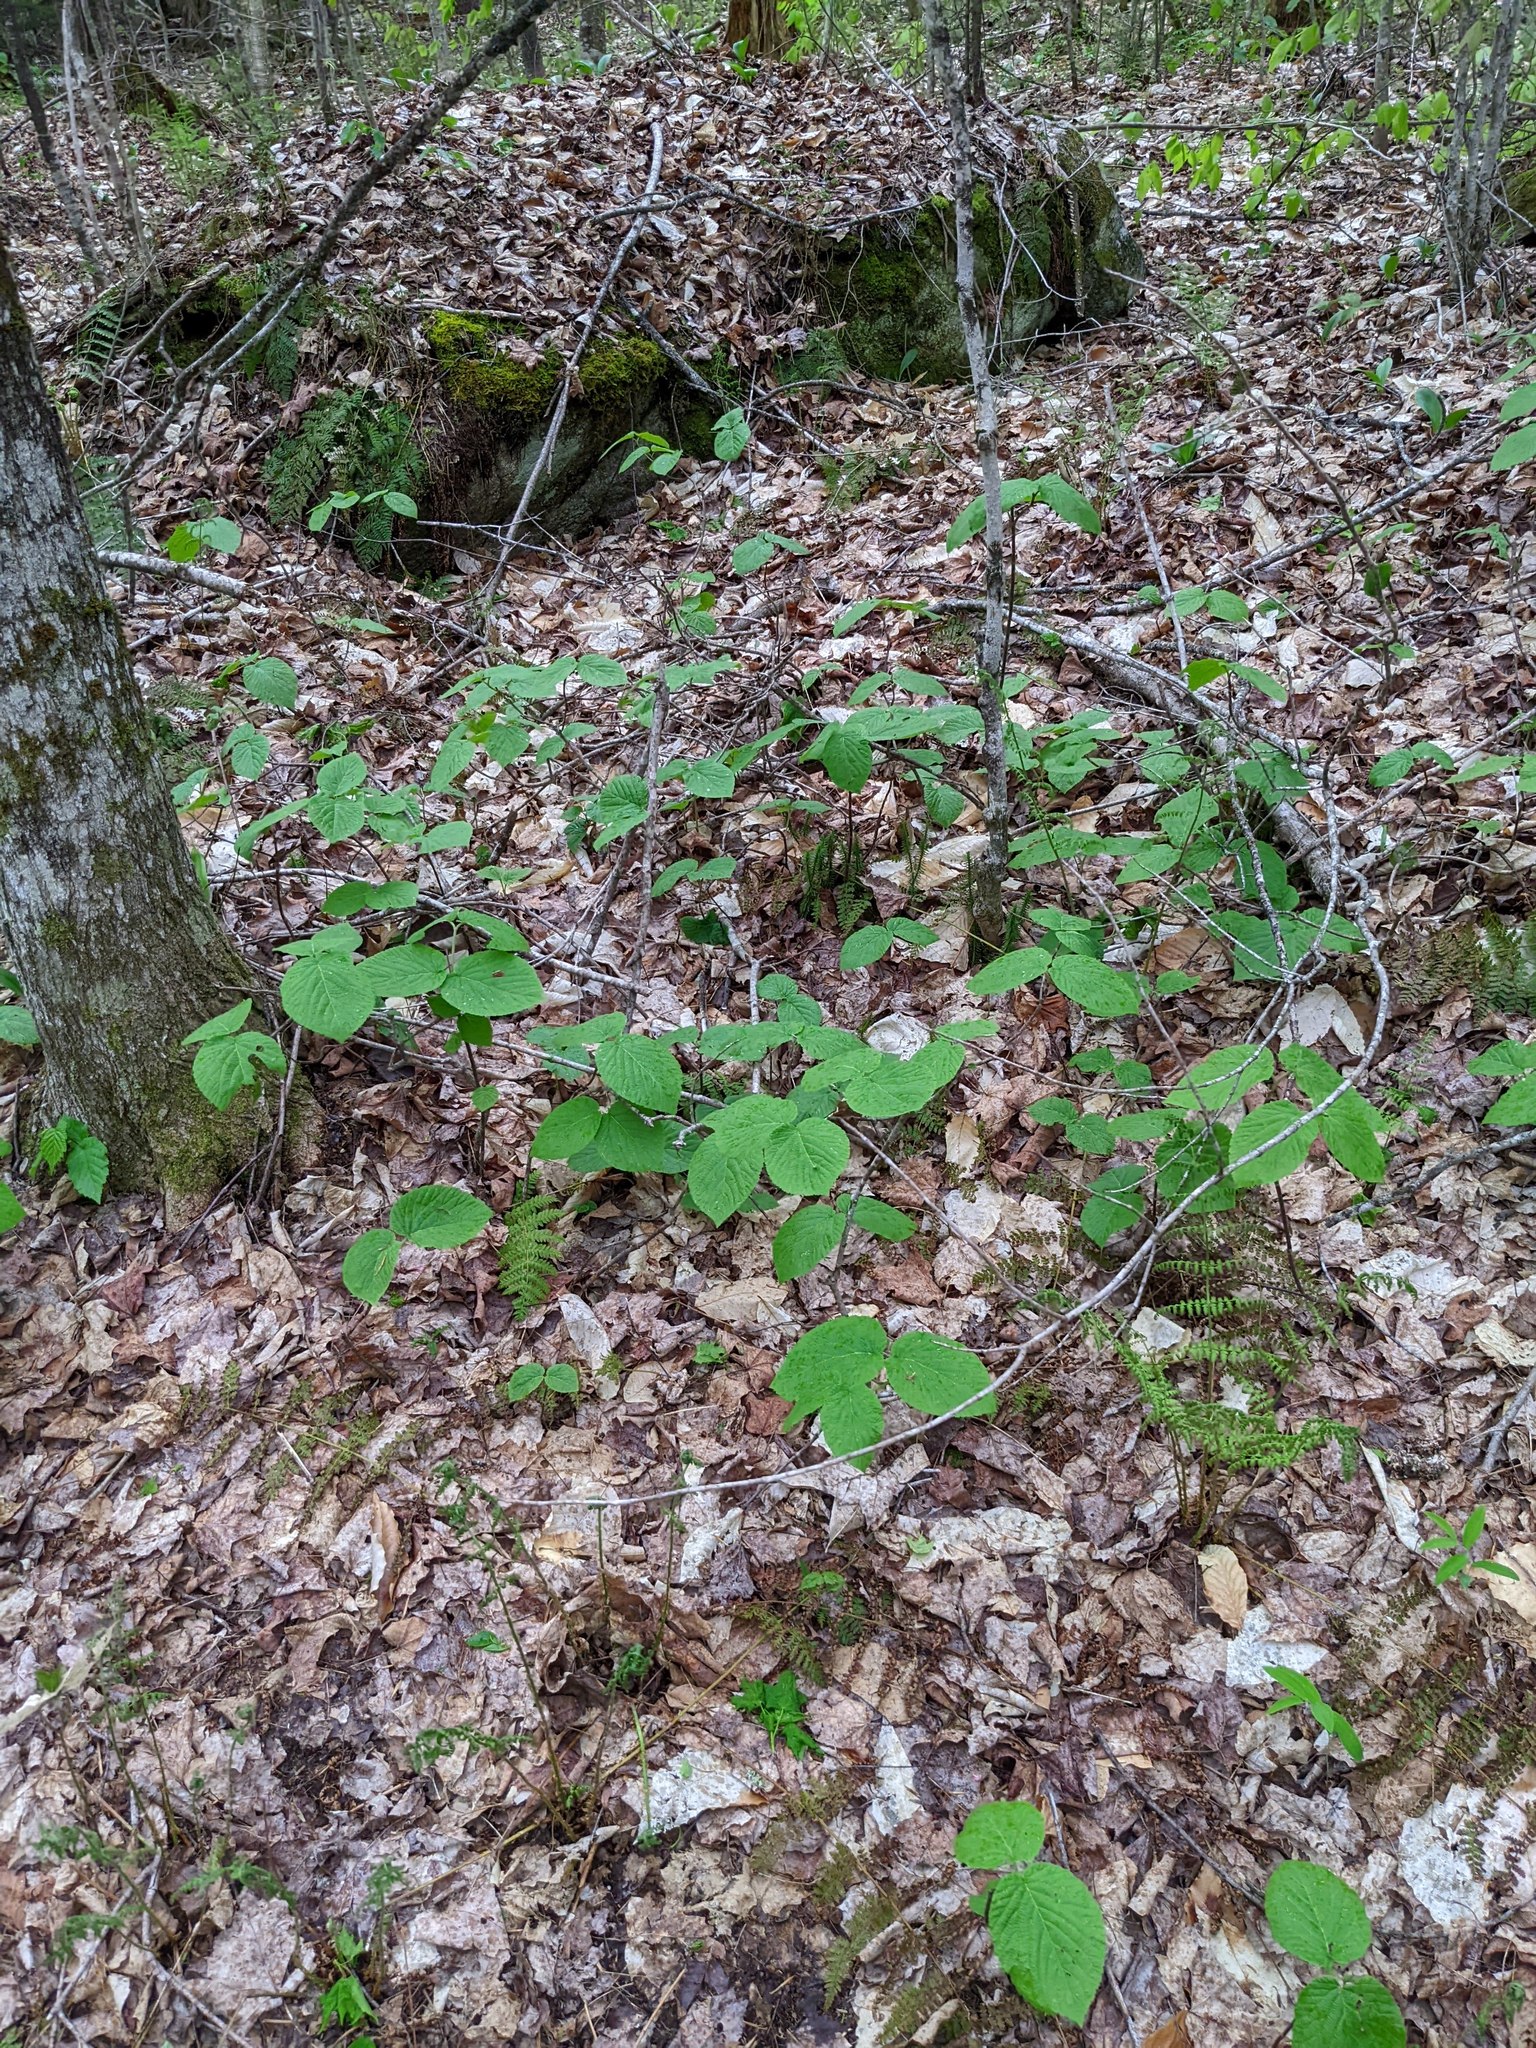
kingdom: Plantae
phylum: Tracheophyta
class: Magnoliopsida
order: Dipsacales
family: Viburnaceae
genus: Viburnum
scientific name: Viburnum lantanoides
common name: Hobblebush
